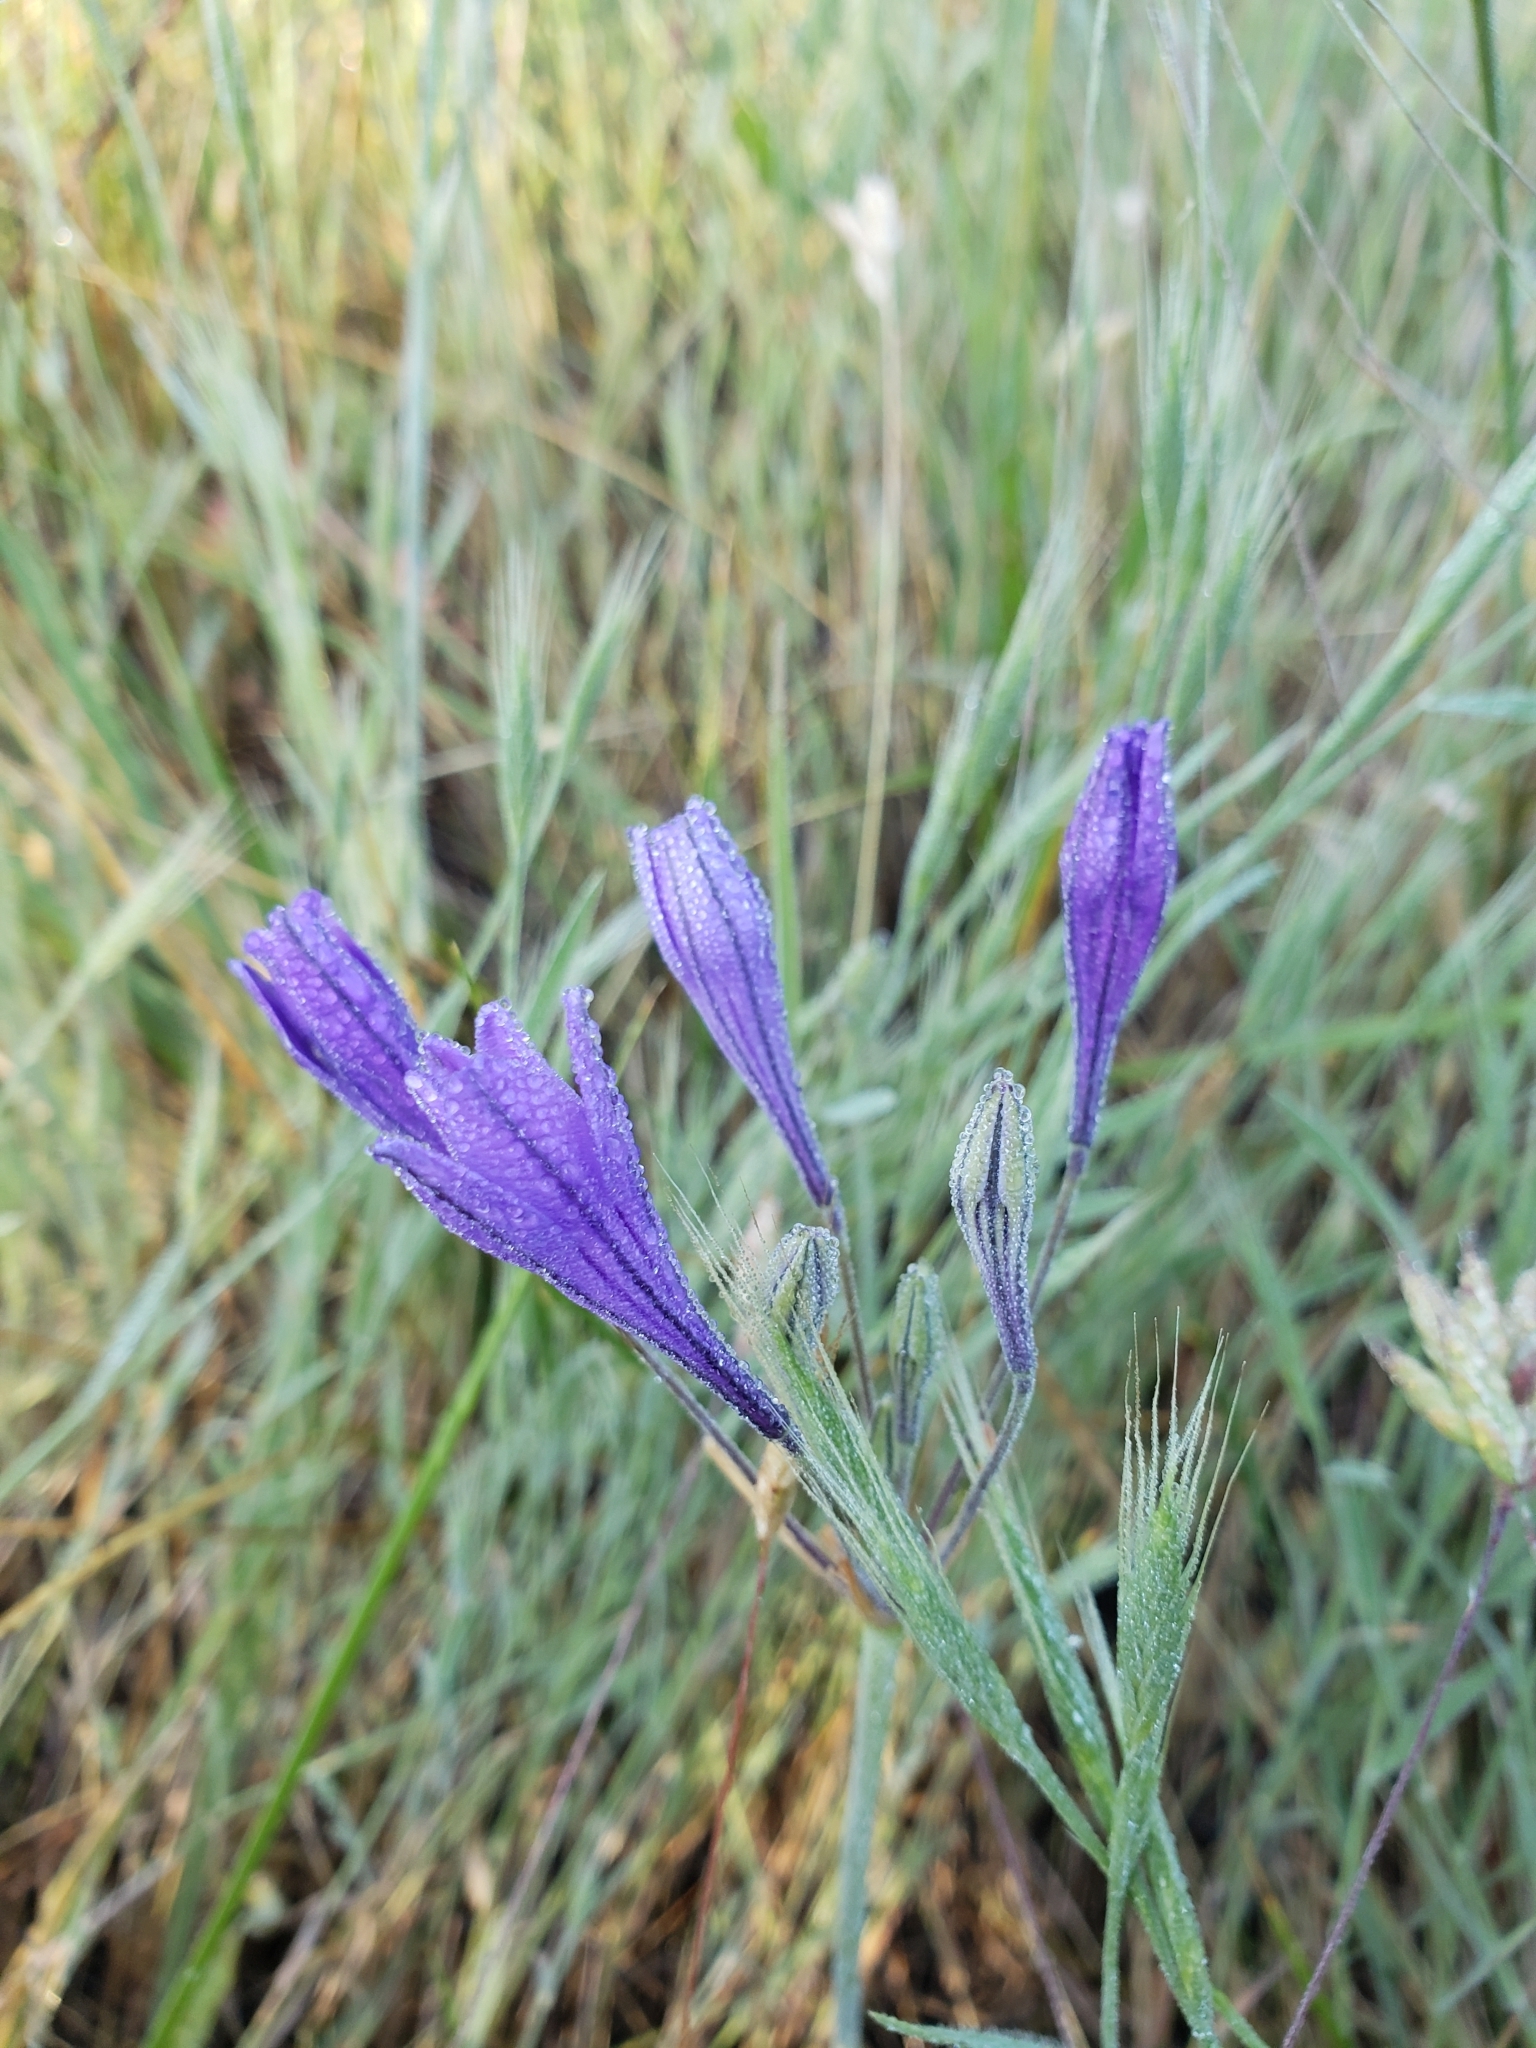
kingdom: Plantae
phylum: Tracheophyta
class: Liliopsida
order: Asparagales
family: Asparagaceae
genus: Triteleia
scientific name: Triteleia laxa
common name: Triplet-lily
